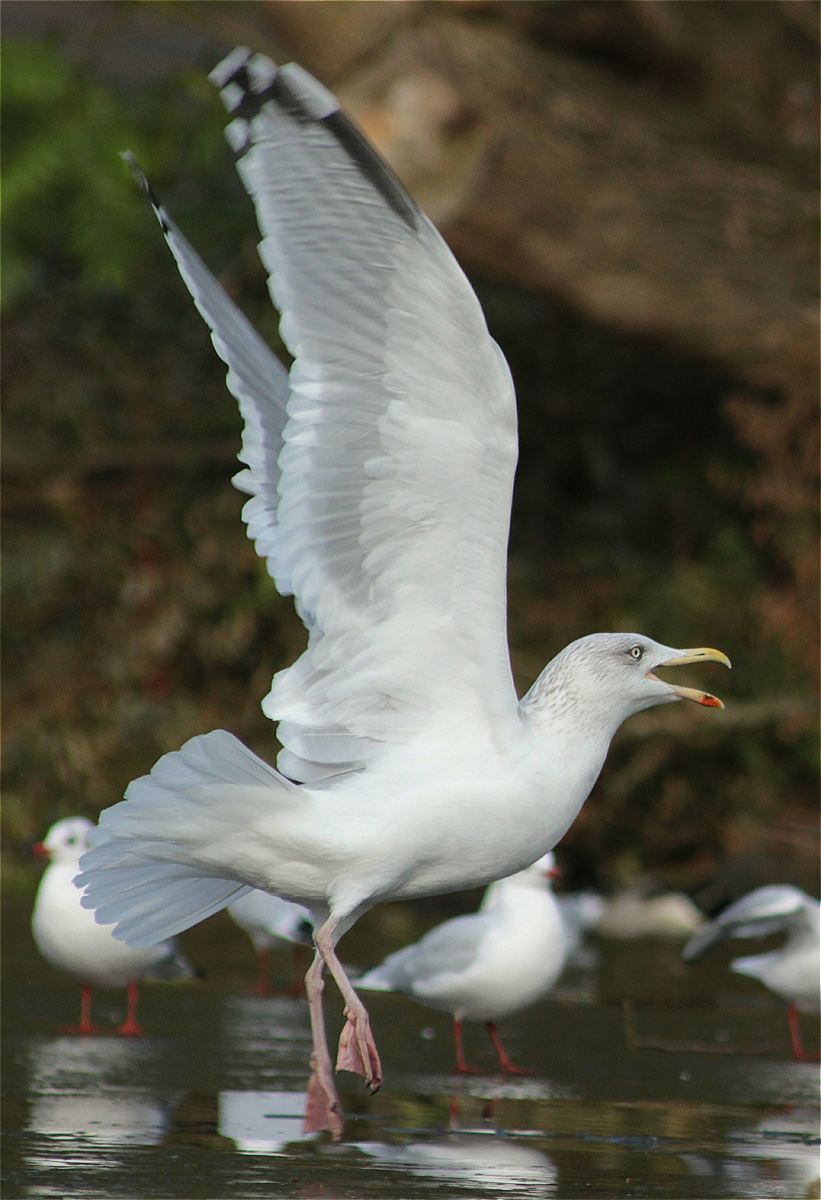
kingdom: Animalia
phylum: Chordata
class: Aves
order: Charadriiformes
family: Laridae
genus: Larus
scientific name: Larus argentatus
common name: Herring gull
